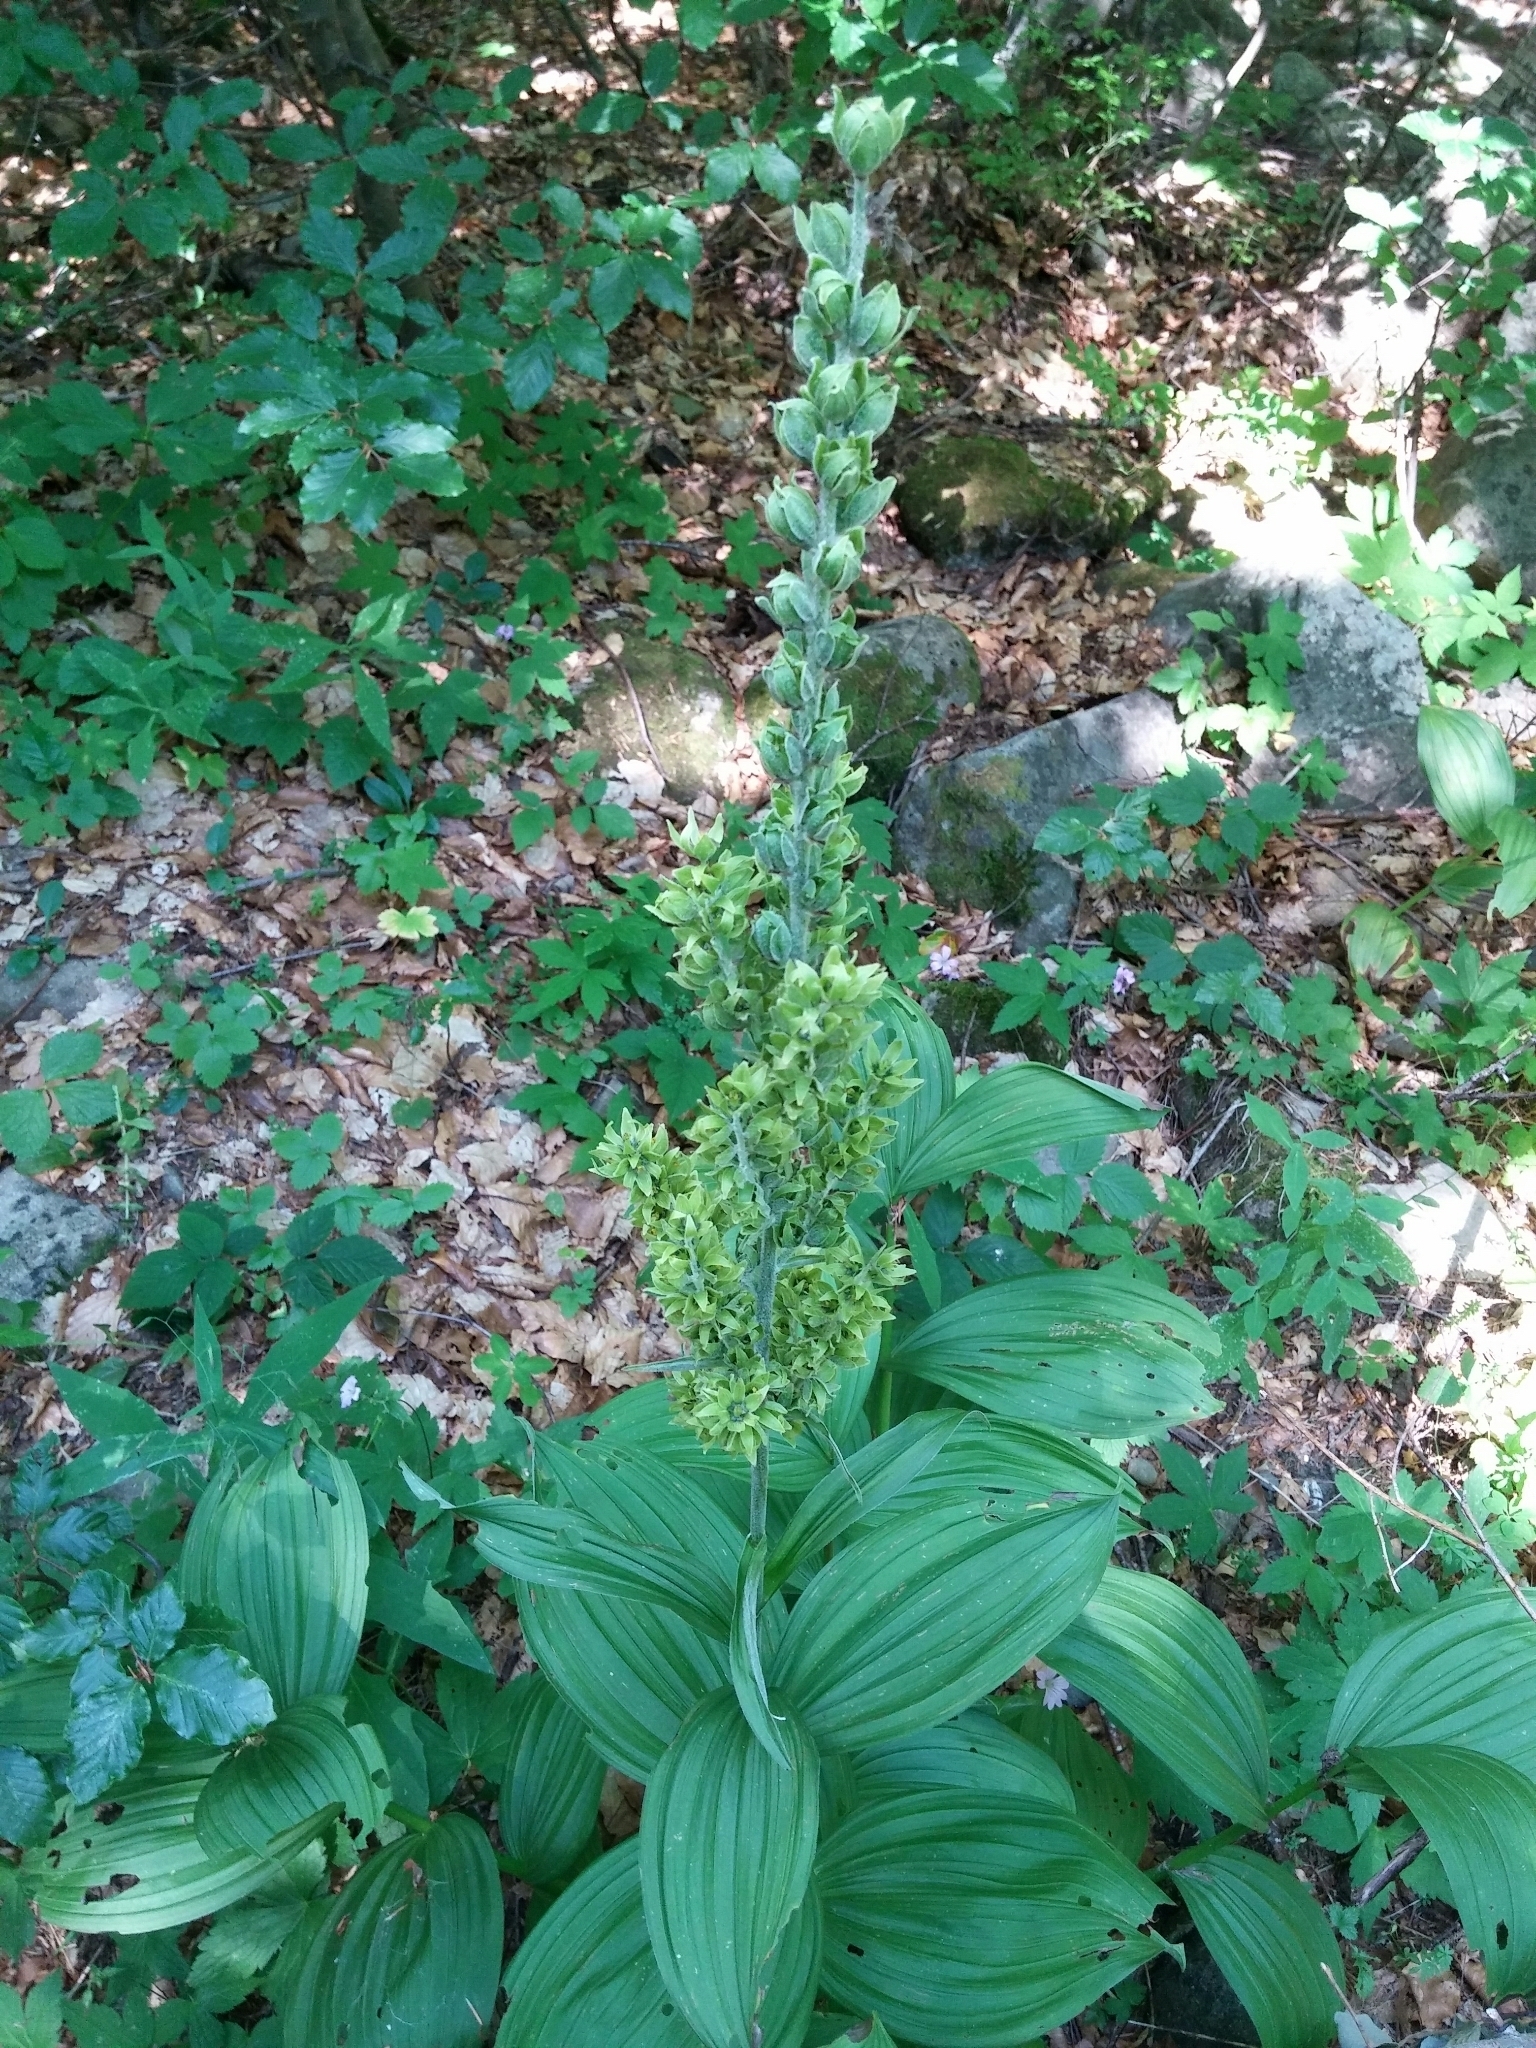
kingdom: Plantae
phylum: Tracheophyta
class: Liliopsida
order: Liliales
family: Melanthiaceae
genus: Veratrum
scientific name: Veratrum lobelianum
